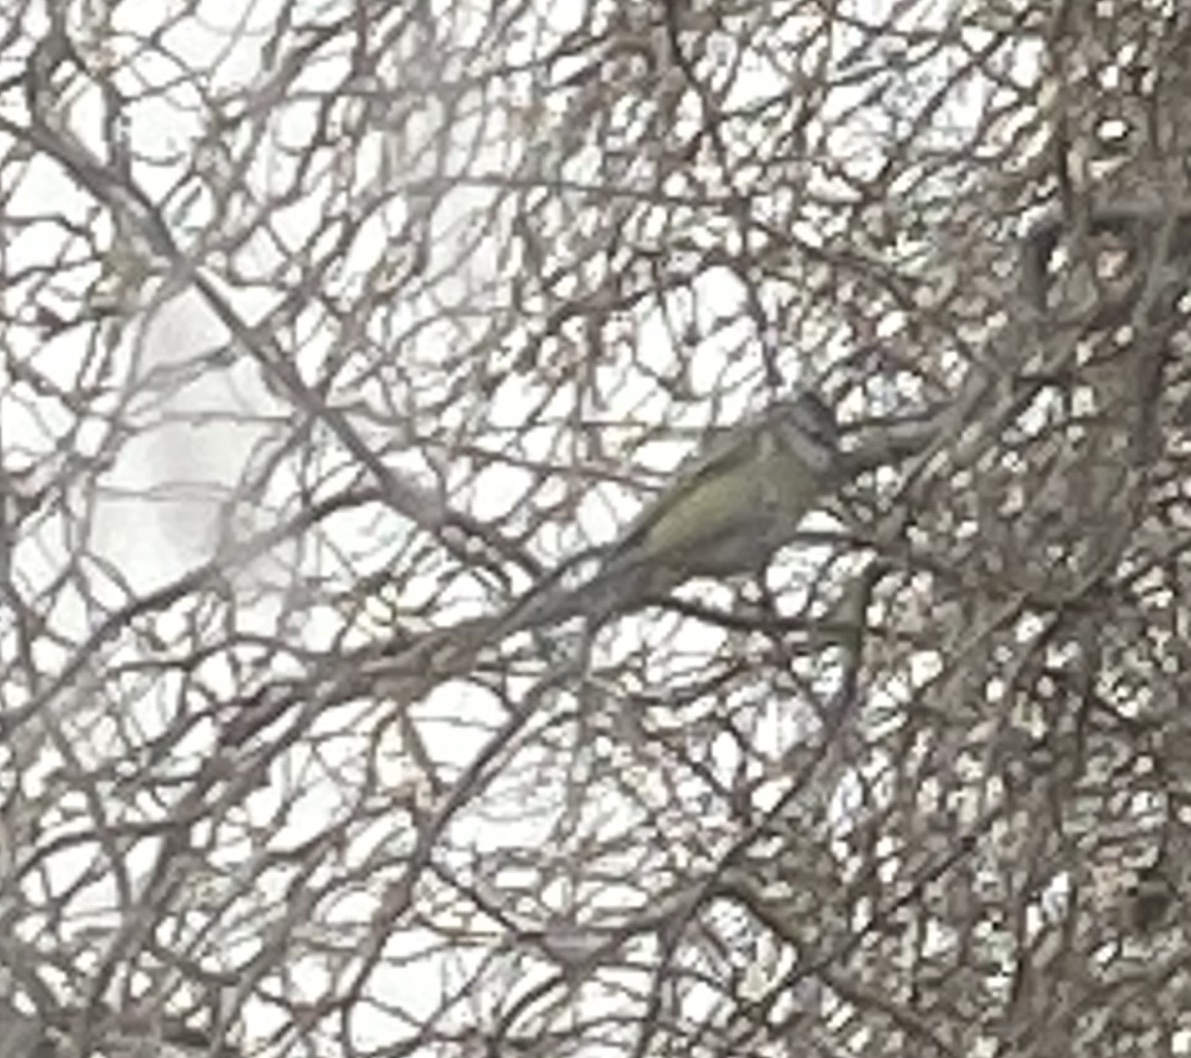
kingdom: Animalia
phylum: Chordata
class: Aves
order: Passeriformes
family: Paridae
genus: Cyanistes
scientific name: Cyanistes caeruleus
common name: Eurasian blue tit
